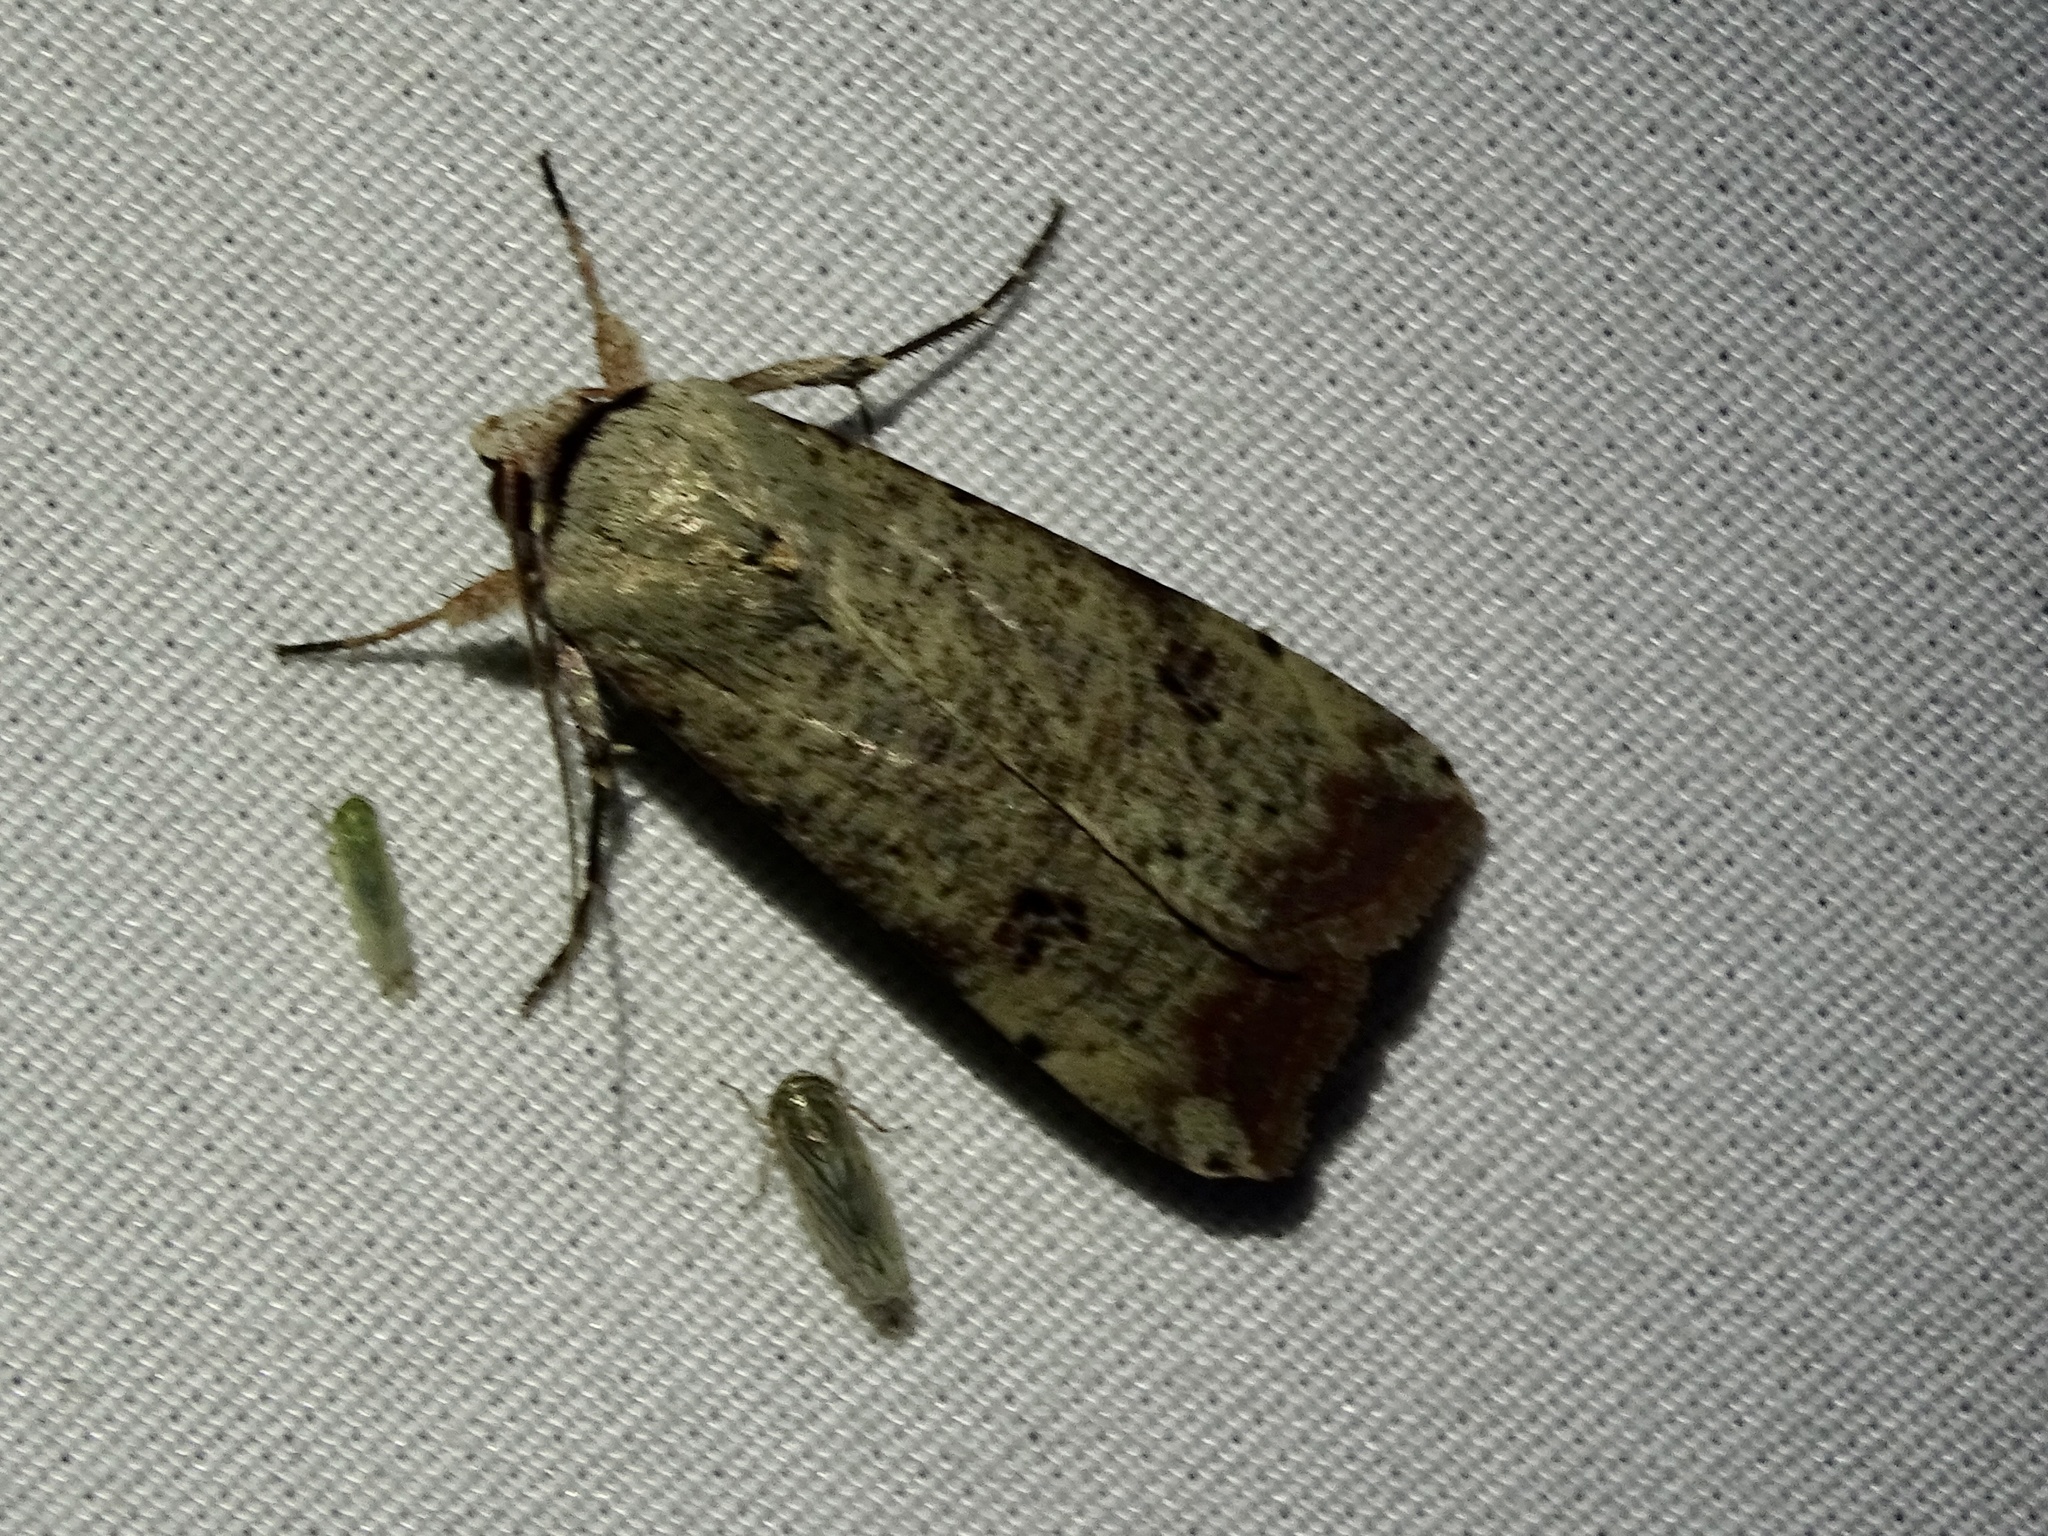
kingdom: Animalia
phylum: Arthropoda
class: Insecta
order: Lepidoptera
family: Noctuidae
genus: Anicla
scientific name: Anicla infecta
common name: Green cutworm
